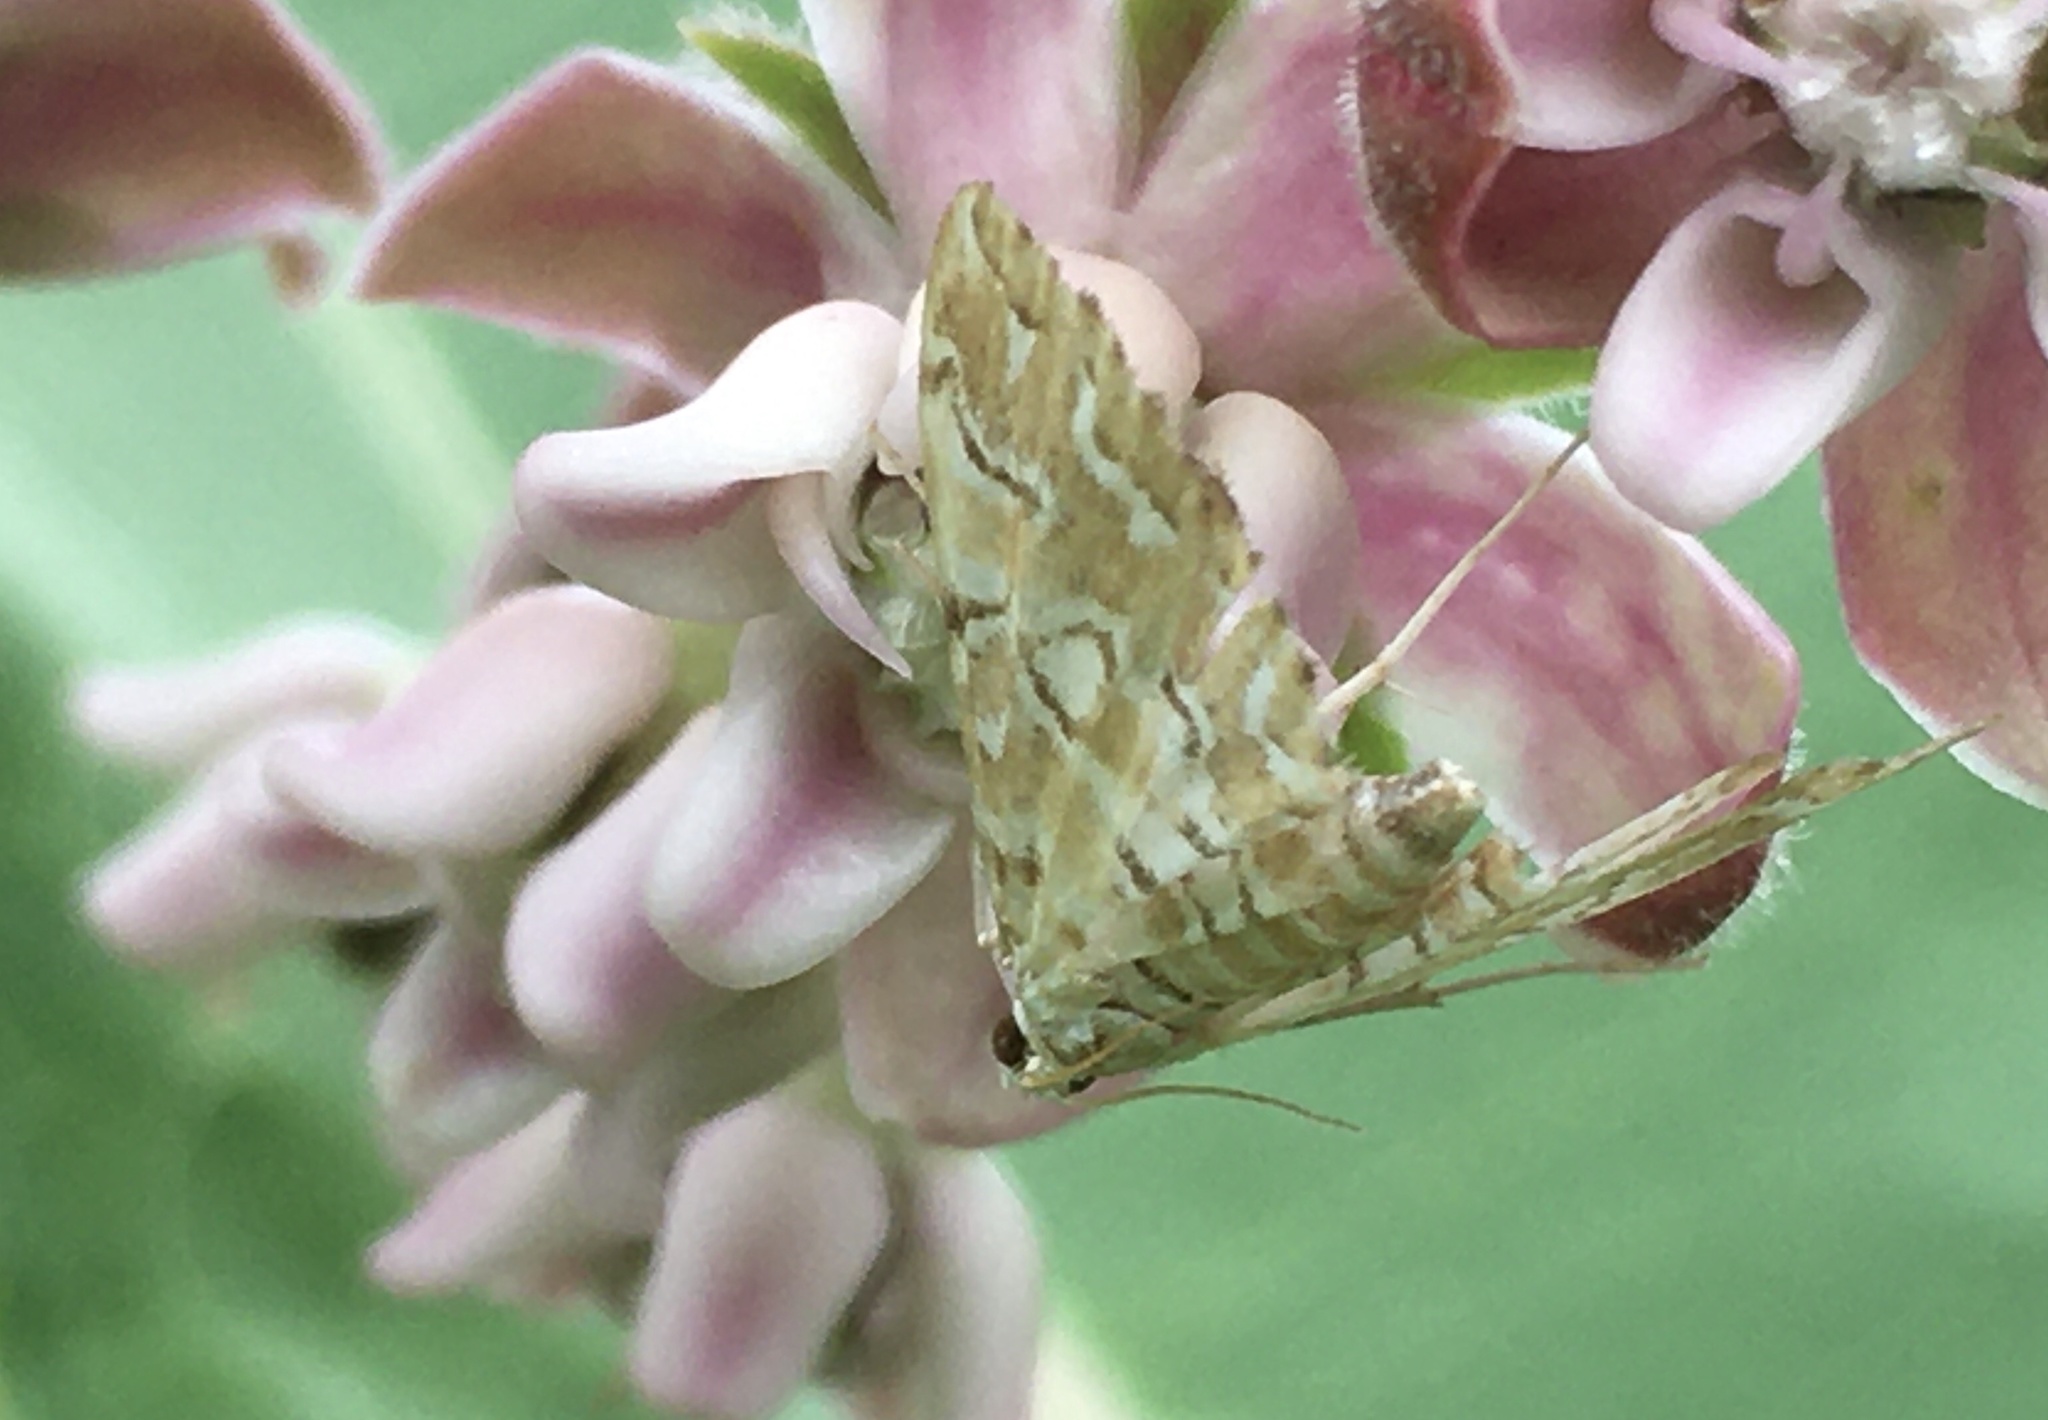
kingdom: Animalia
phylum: Arthropoda
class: Insecta
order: Lepidoptera
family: Crambidae
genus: Elophila
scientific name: Elophila icciusalis
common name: Pondside pyralid moth
